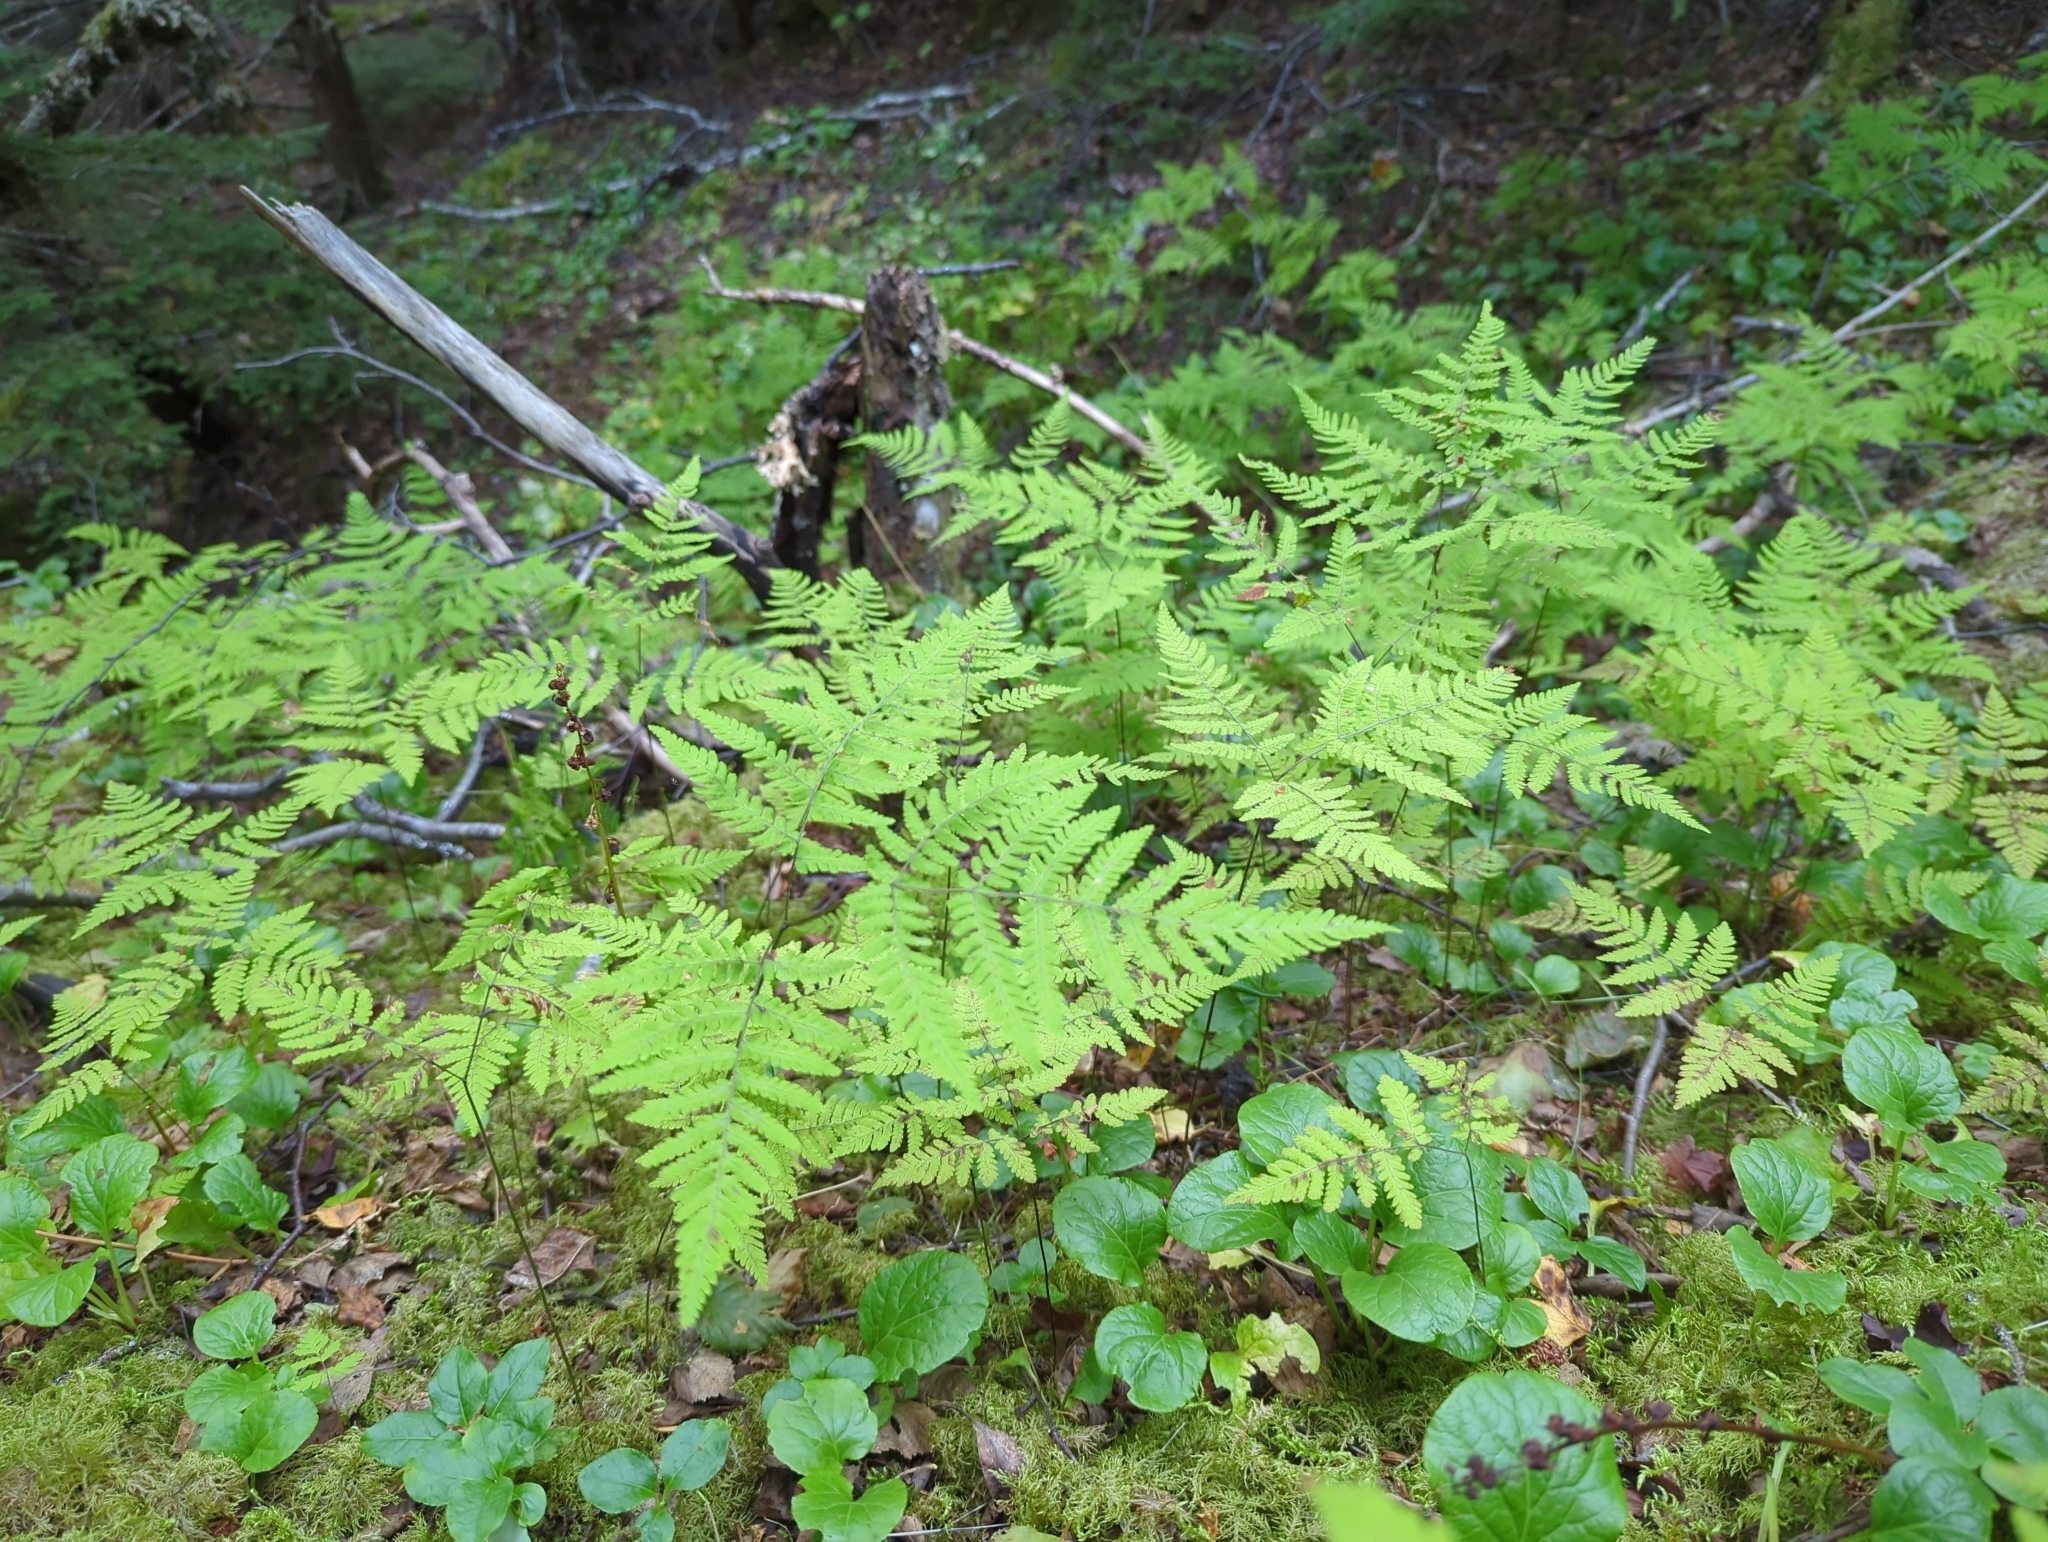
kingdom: Plantae
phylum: Tracheophyta
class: Polypodiopsida
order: Polypodiales
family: Cystopteridaceae
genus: Gymnocarpium
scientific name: Gymnocarpium disjunctum
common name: Western oak fern
